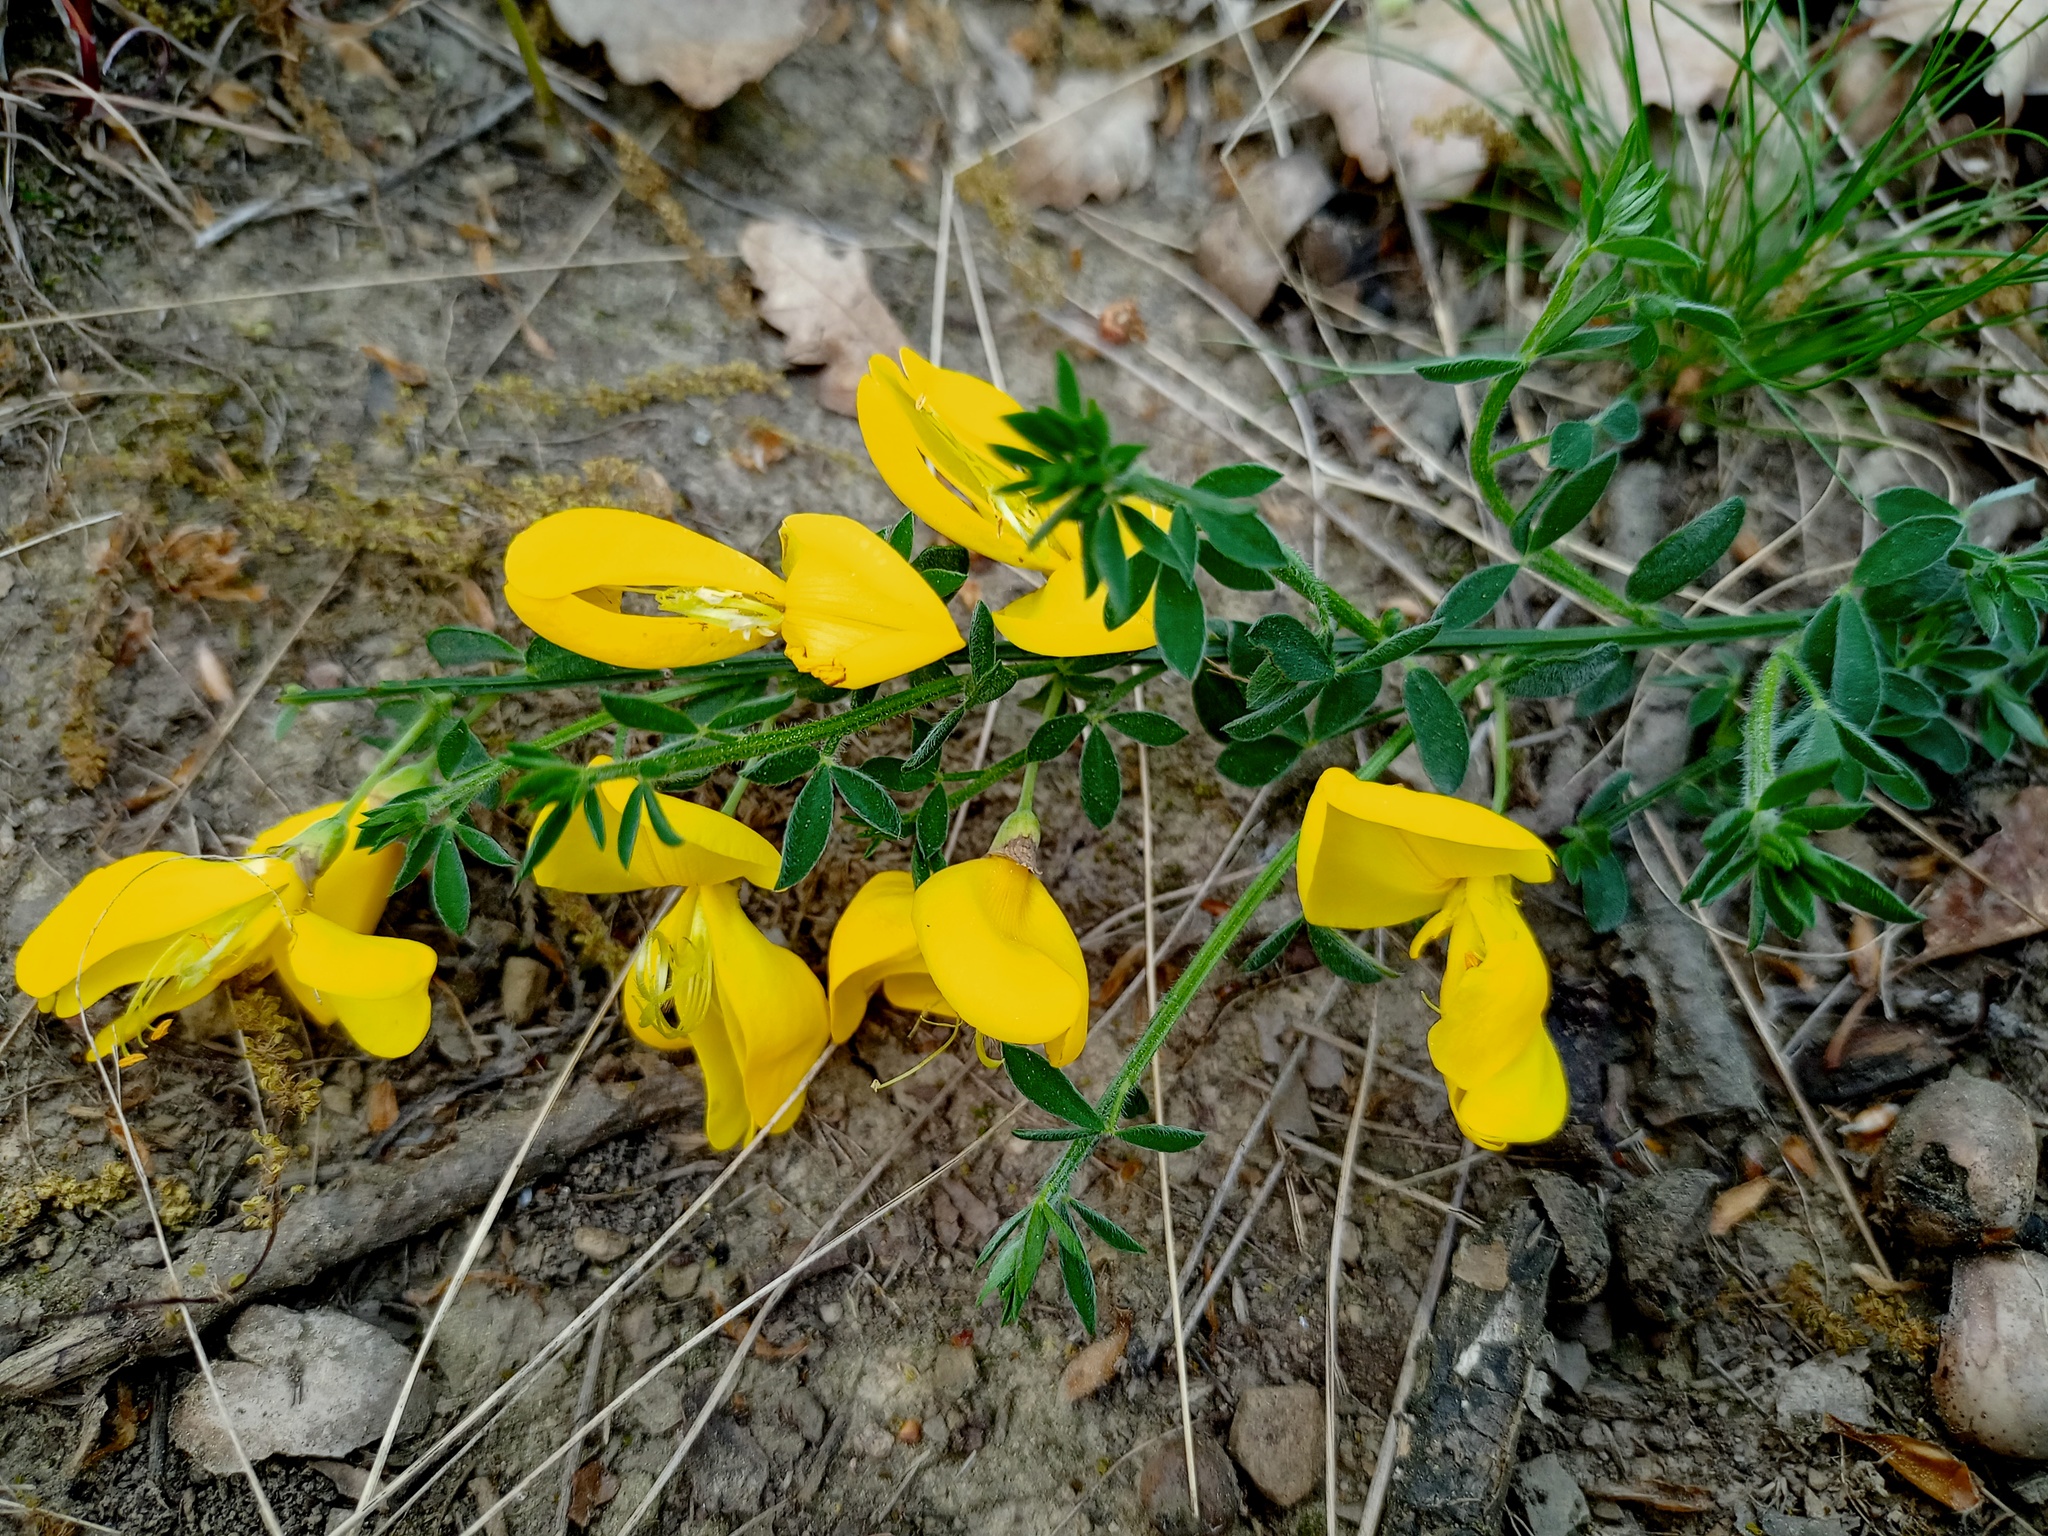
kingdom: Plantae
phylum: Tracheophyta
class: Magnoliopsida
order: Fabales
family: Fabaceae
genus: Cytisus
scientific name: Cytisus scoparius
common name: Scotch broom
